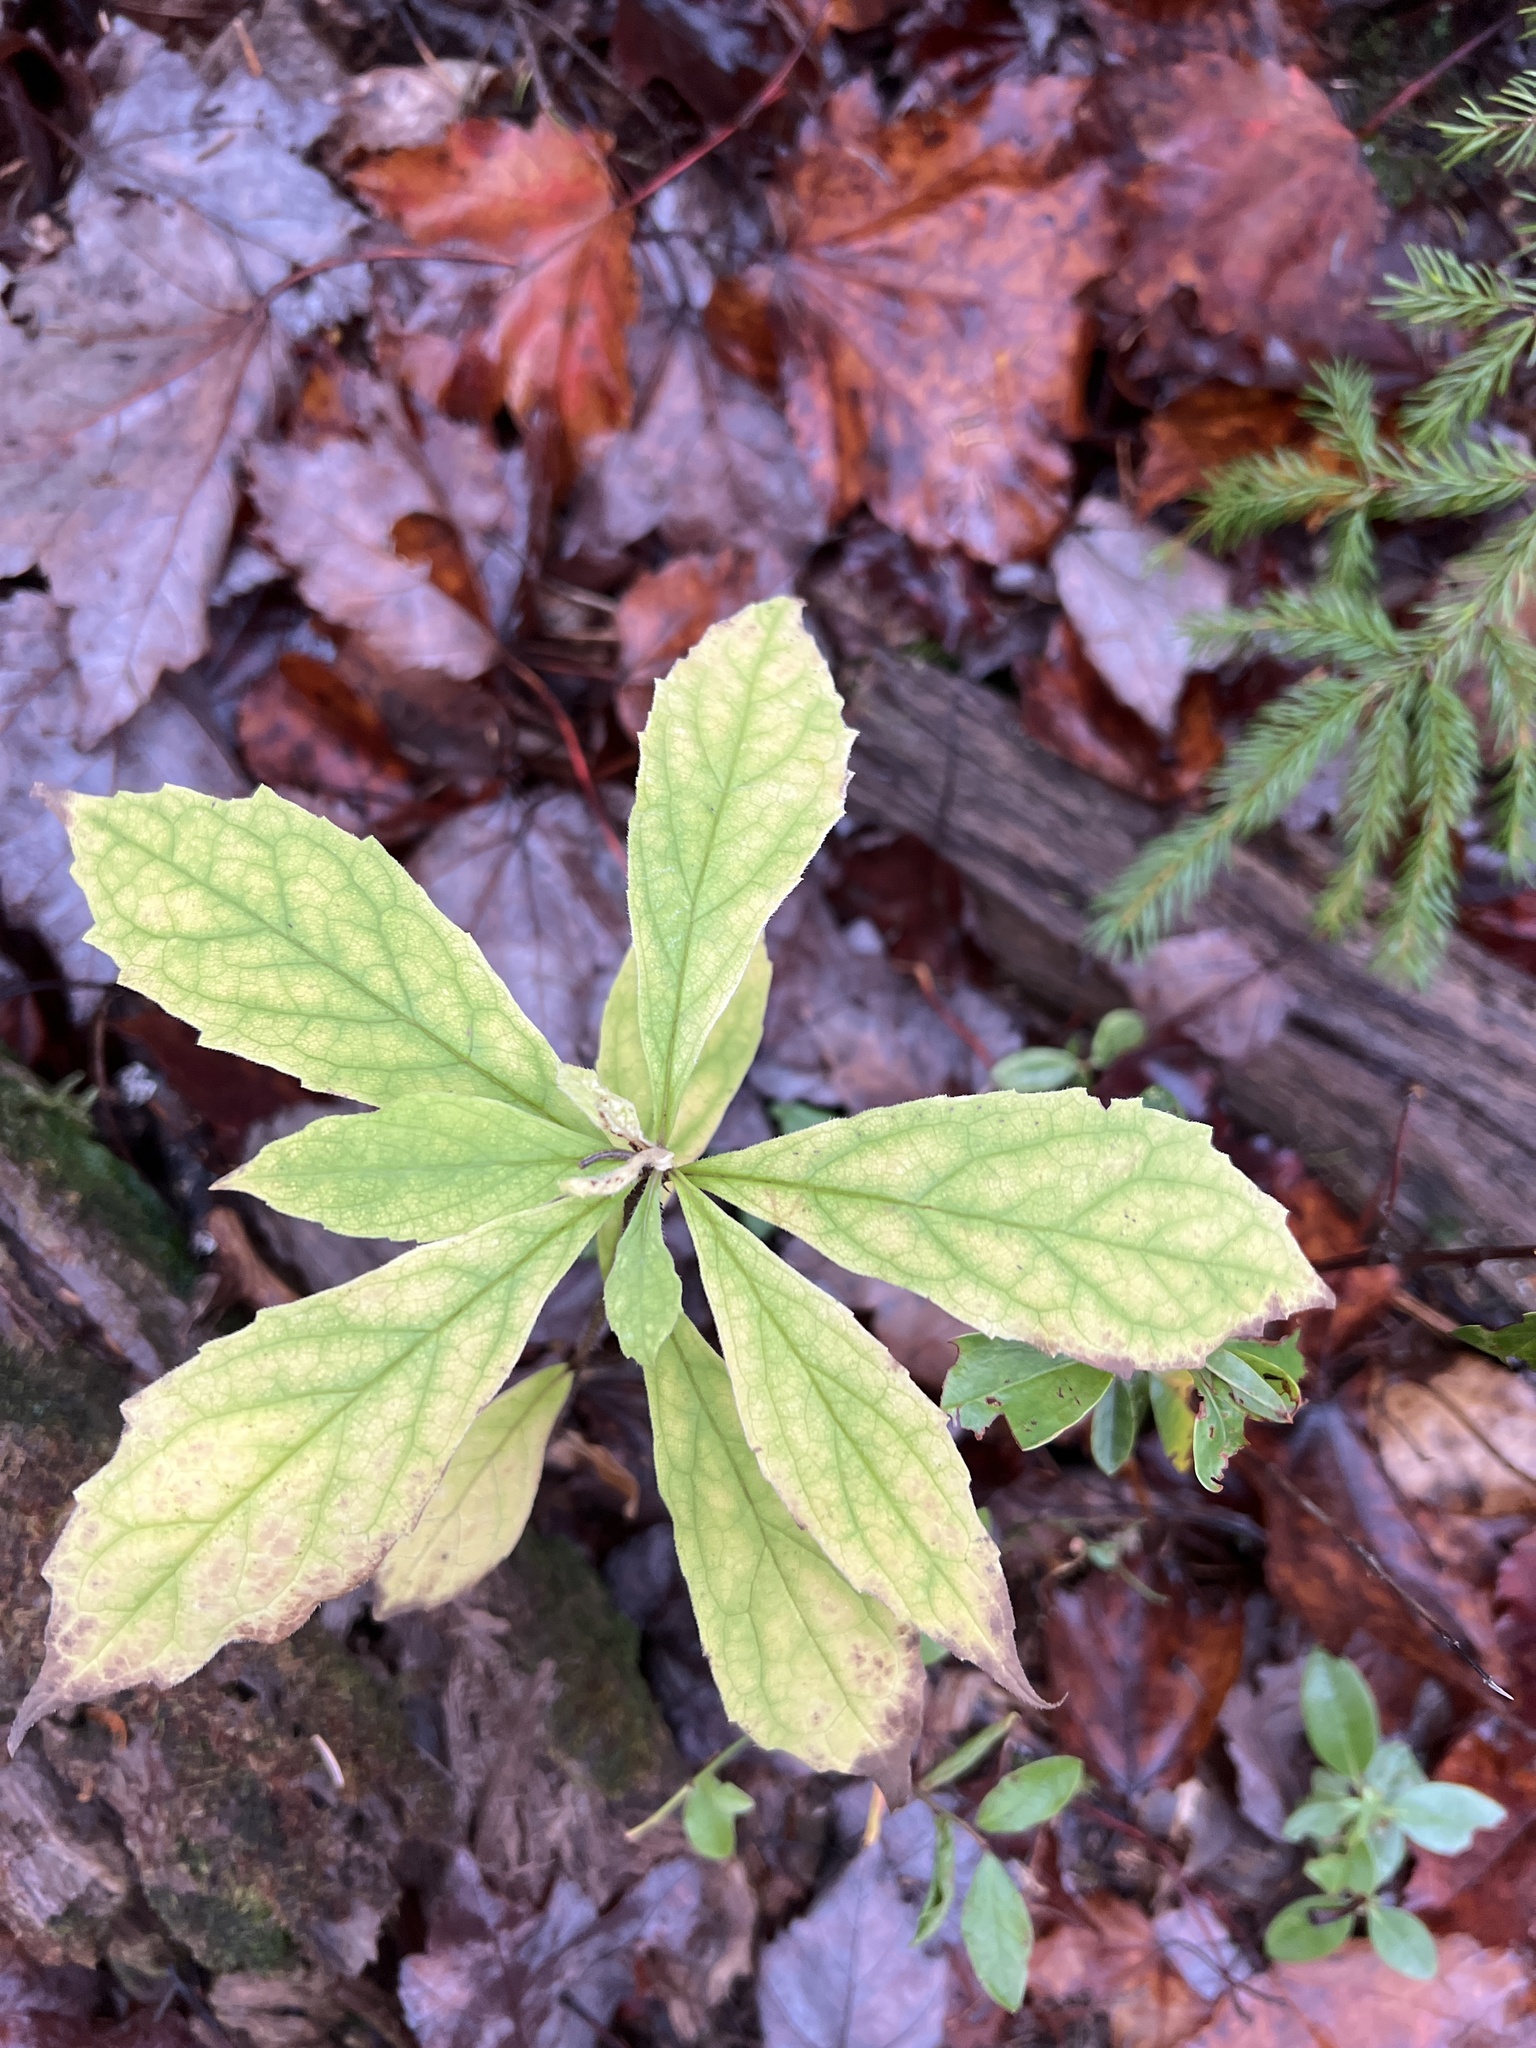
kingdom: Plantae
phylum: Tracheophyta
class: Magnoliopsida
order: Asterales
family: Asteraceae
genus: Oclemena
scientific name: Oclemena acuminata
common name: Mountain aster
